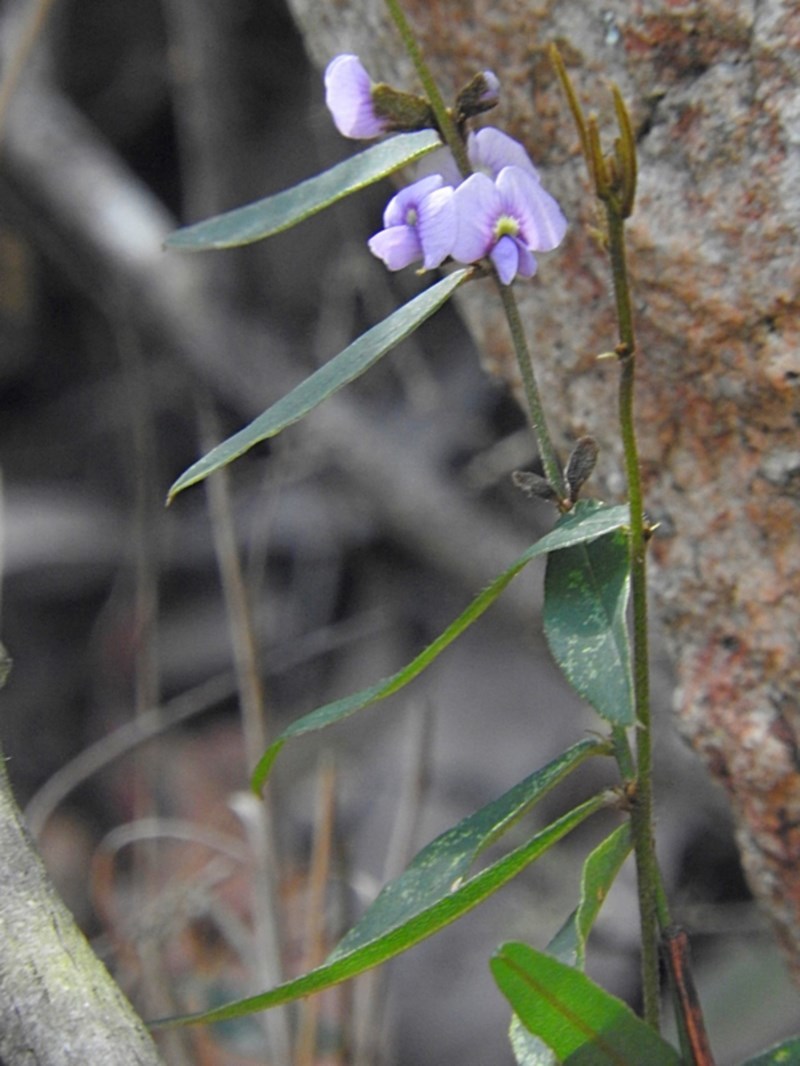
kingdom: Plantae
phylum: Tracheophyta
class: Magnoliopsida
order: Fabales
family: Fabaceae
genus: Hovea
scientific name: Hovea heterophylla
